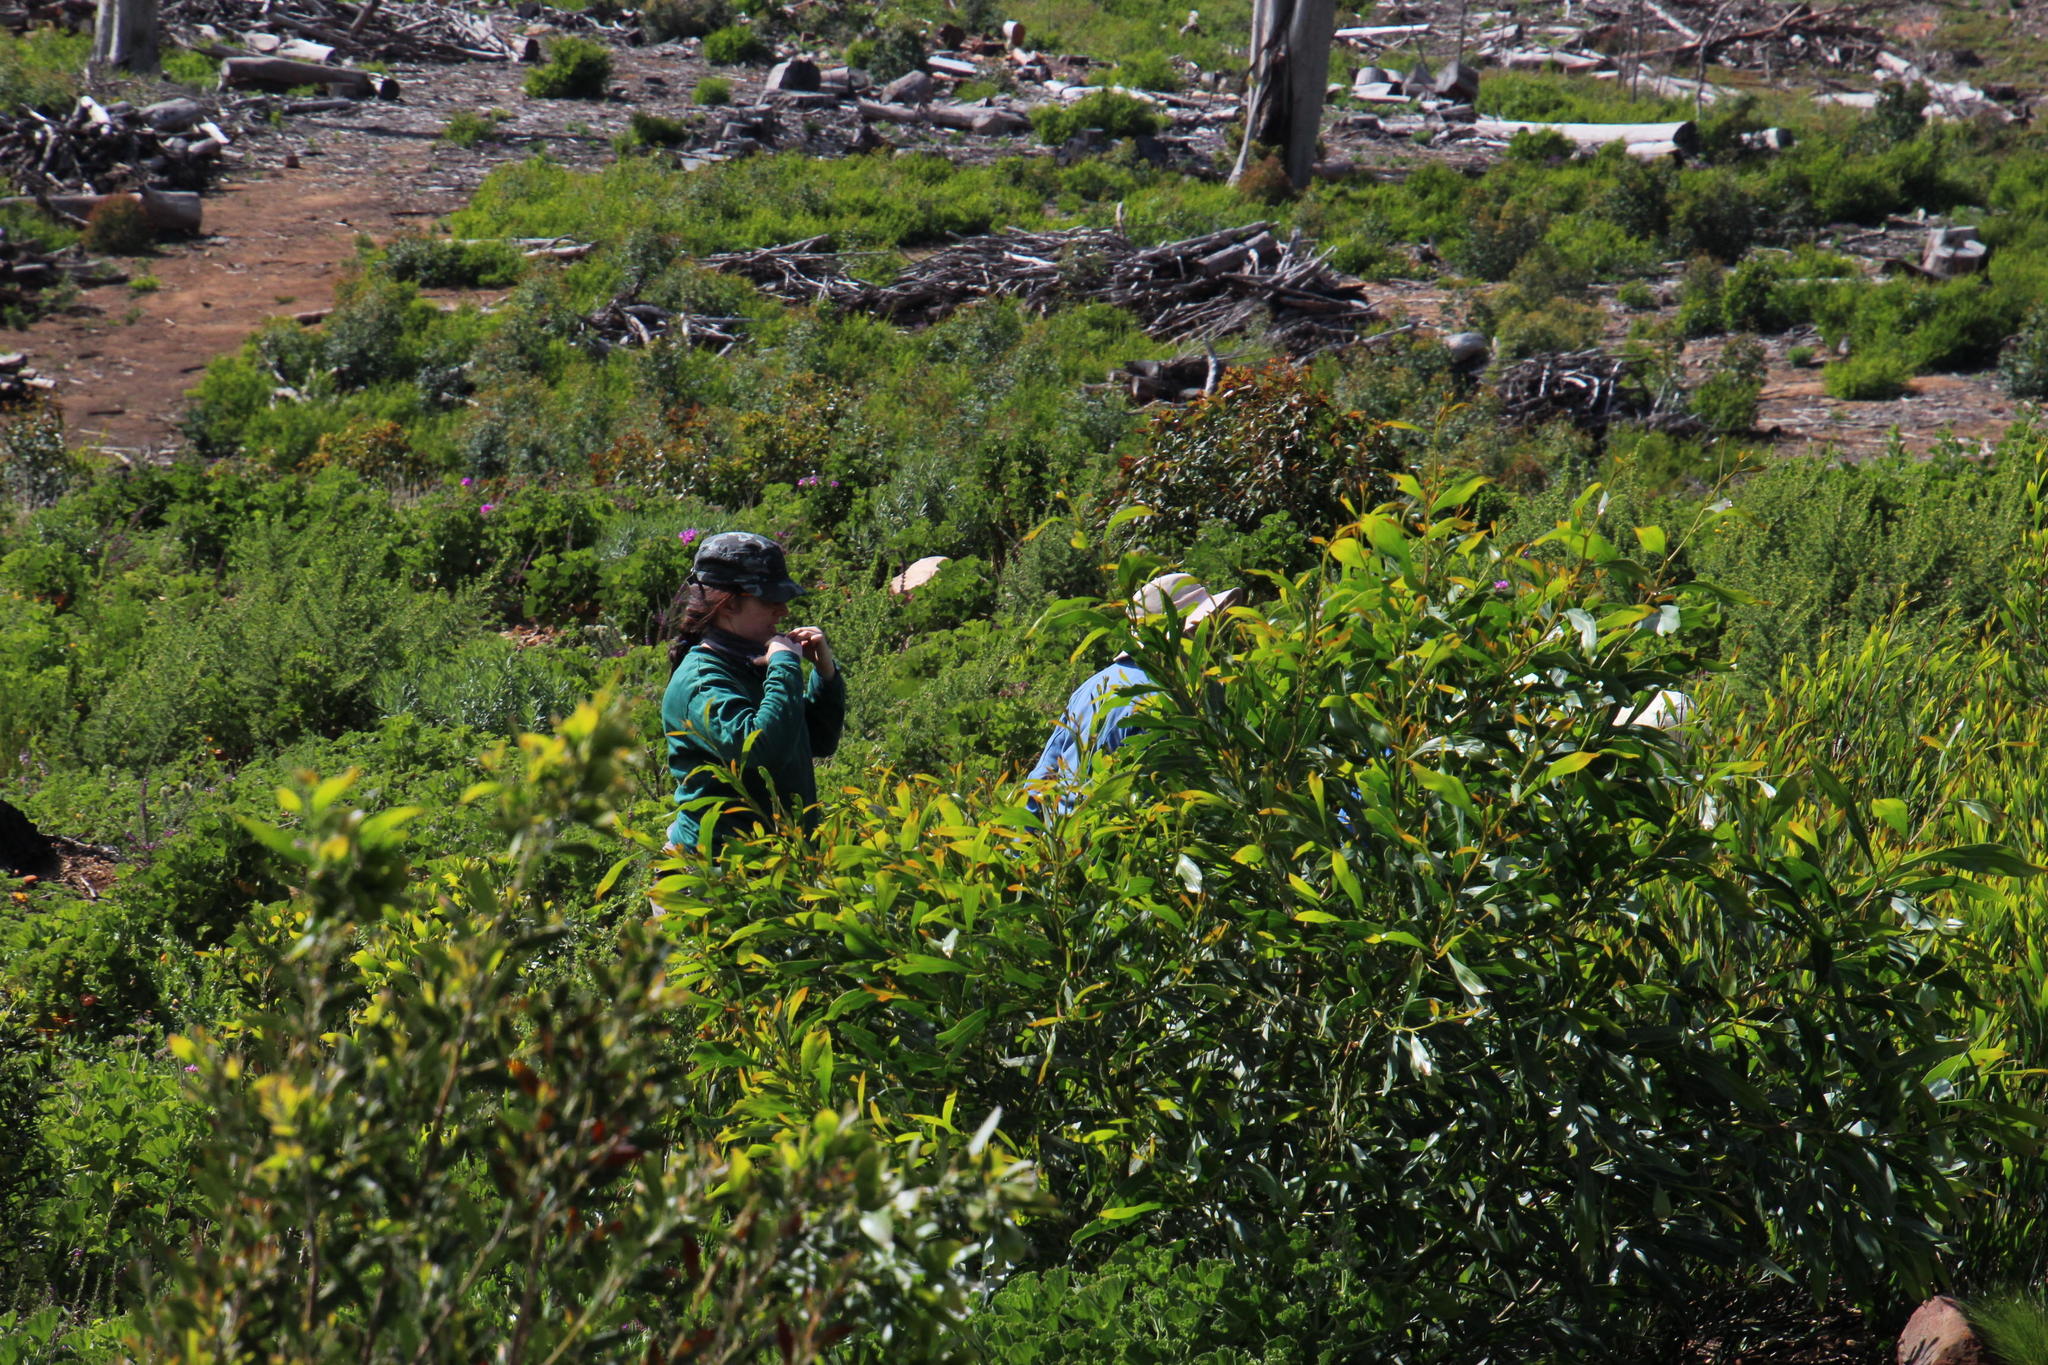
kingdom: Plantae
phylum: Tracheophyta
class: Magnoliopsida
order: Fabales
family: Fabaceae
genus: Acacia
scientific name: Acacia saligna
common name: Orange wattle
